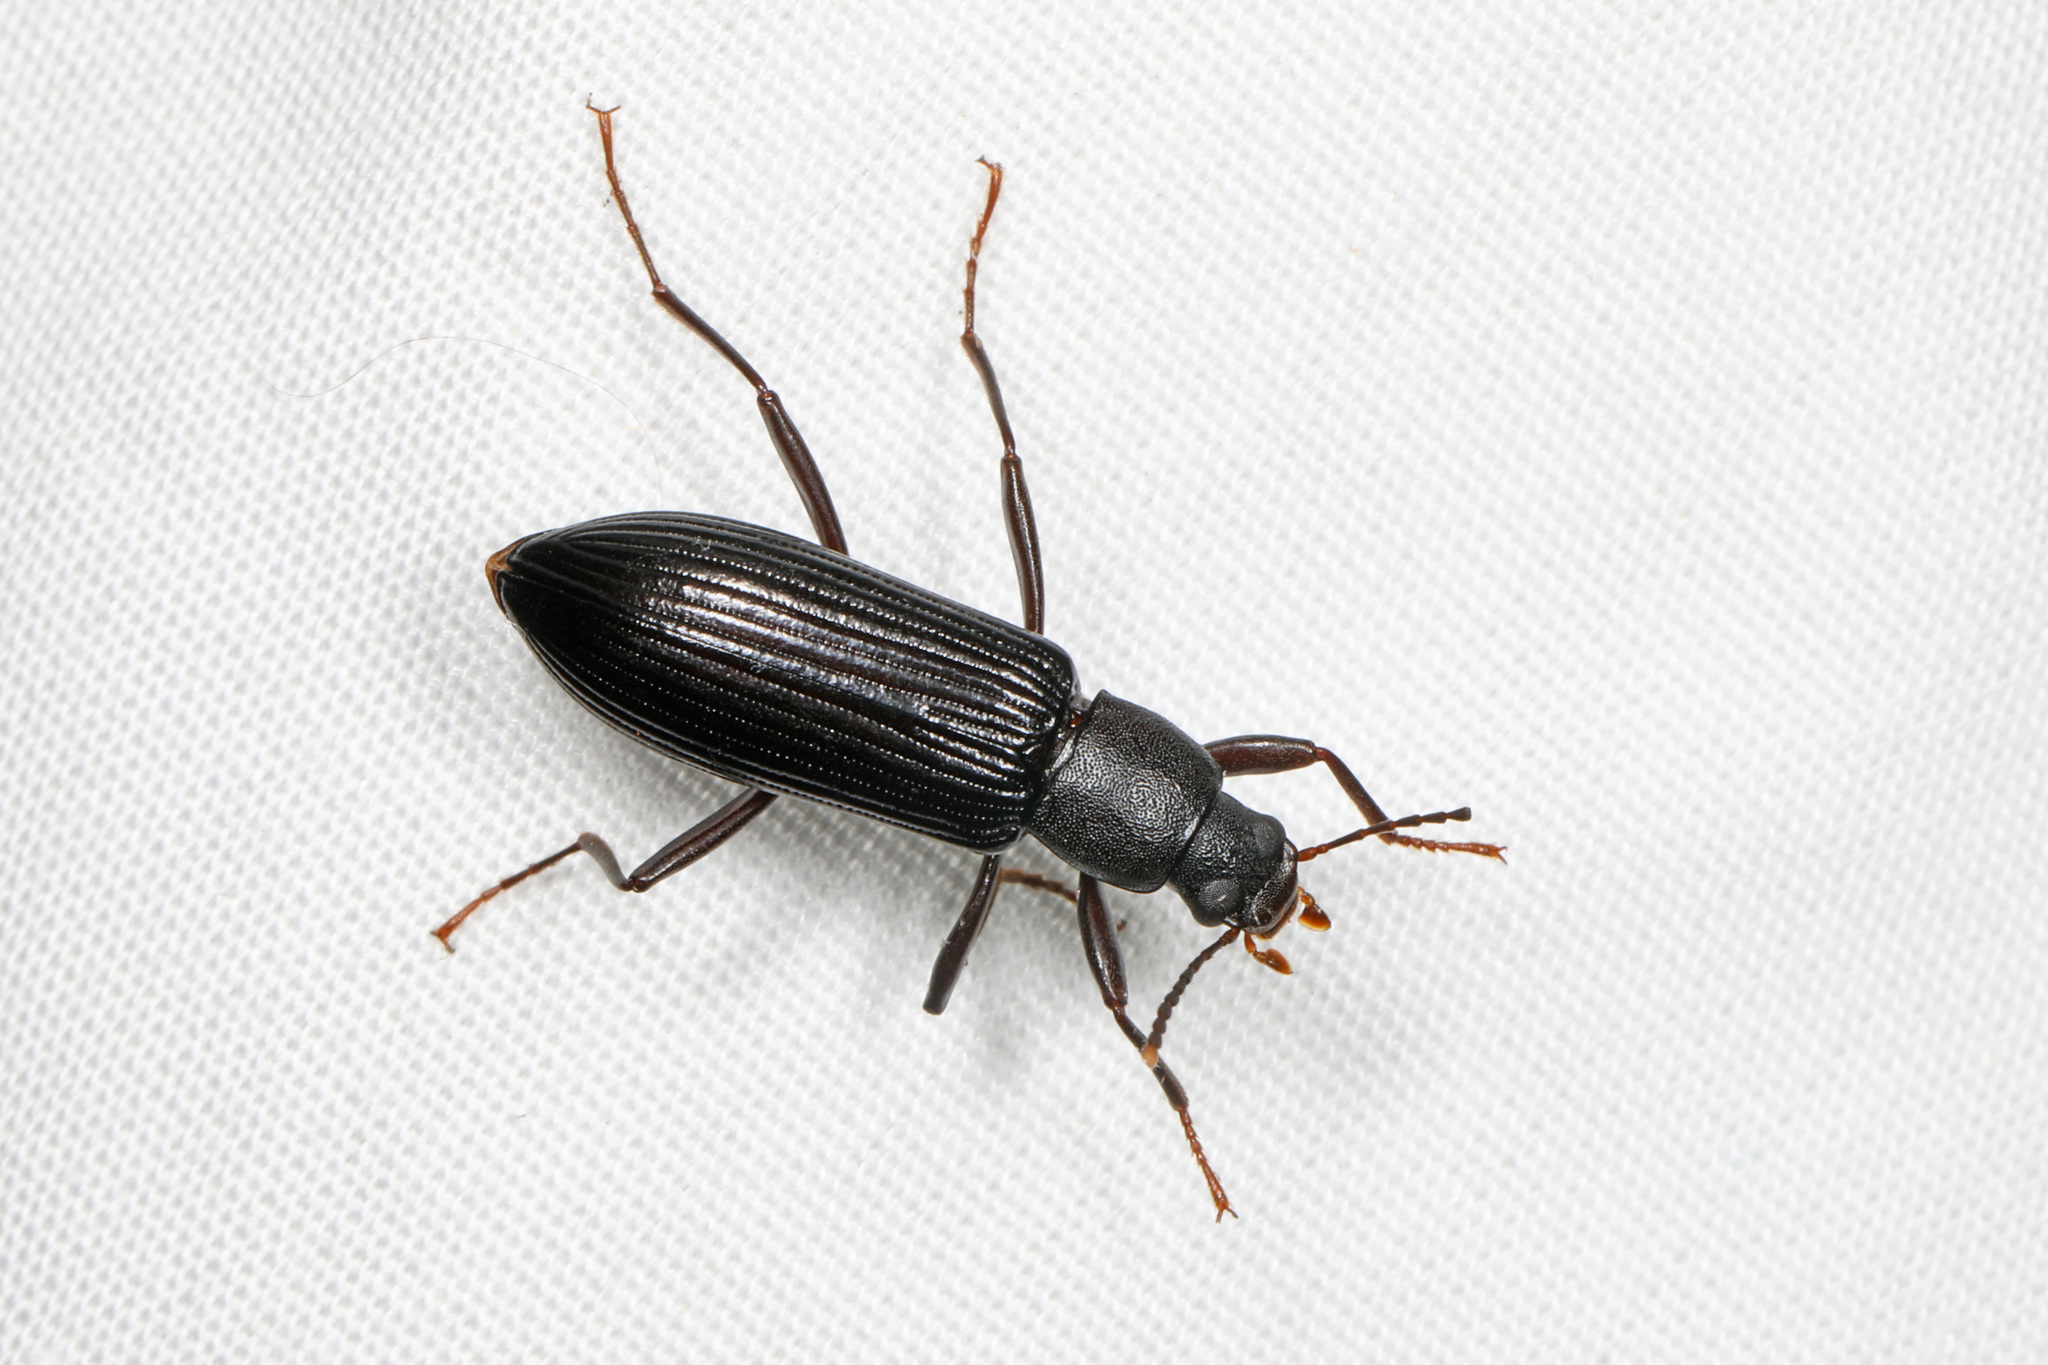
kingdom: Animalia
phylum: Arthropoda
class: Insecta
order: Coleoptera
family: Tenebrionidae
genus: Strongylium
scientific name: Strongylium tenuicolle
